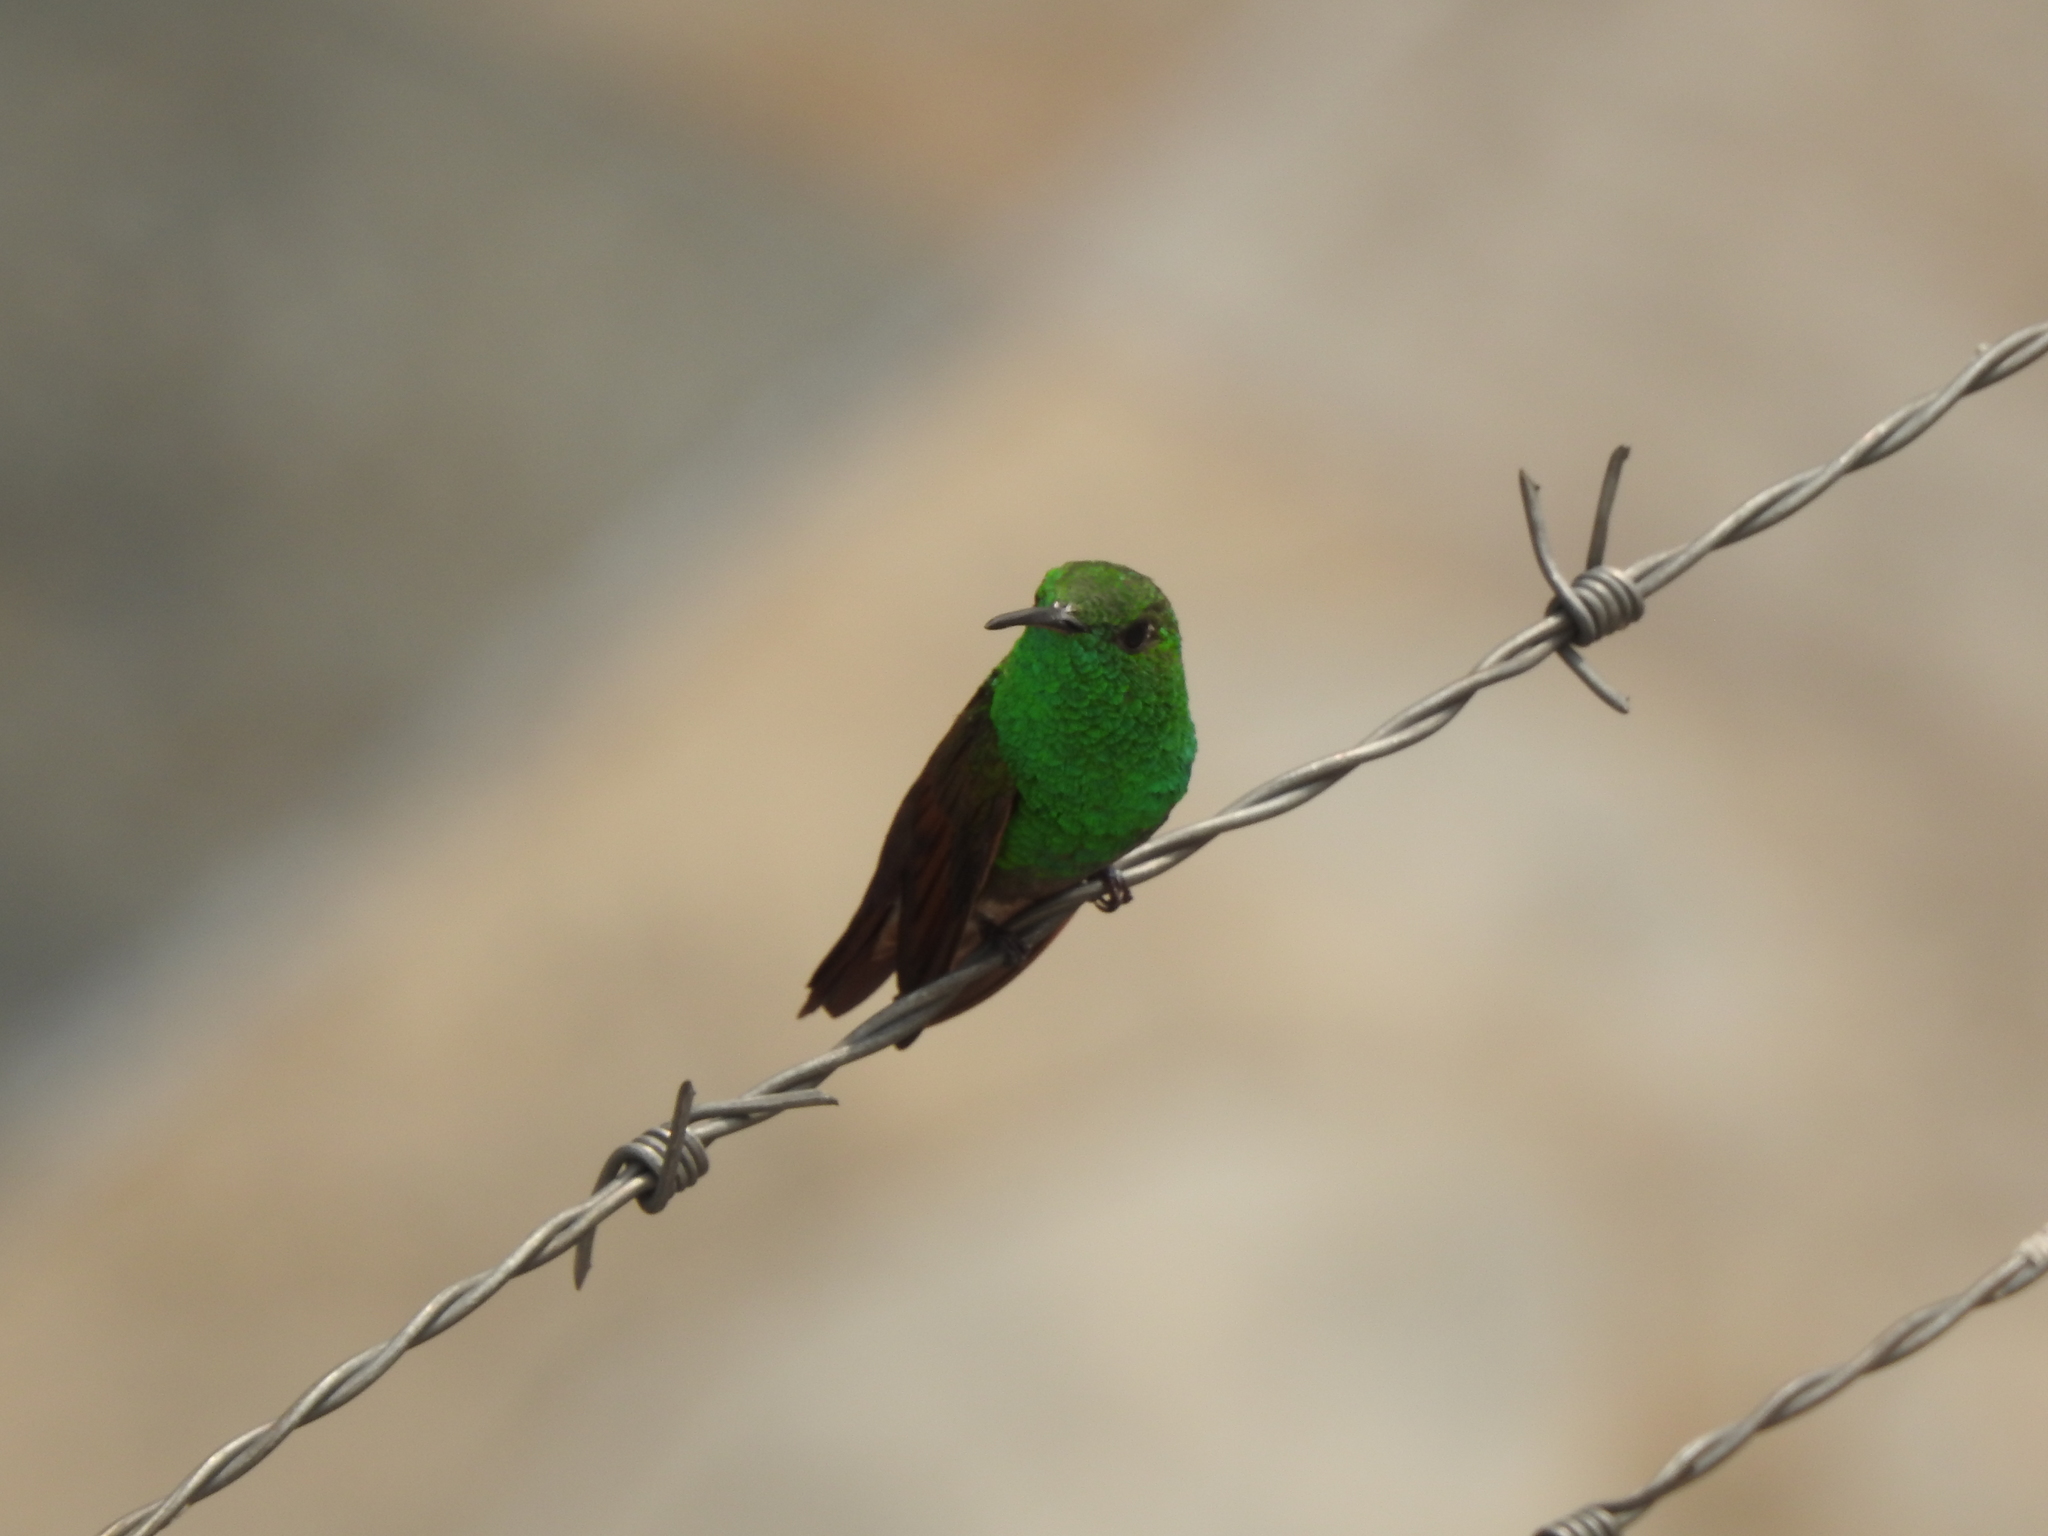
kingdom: Animalia
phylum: Chordata
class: Aves
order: Apodiformes
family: Trochilidae
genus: Saucerottia
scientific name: Saucerottia beryllina
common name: Berylline hummingbird
